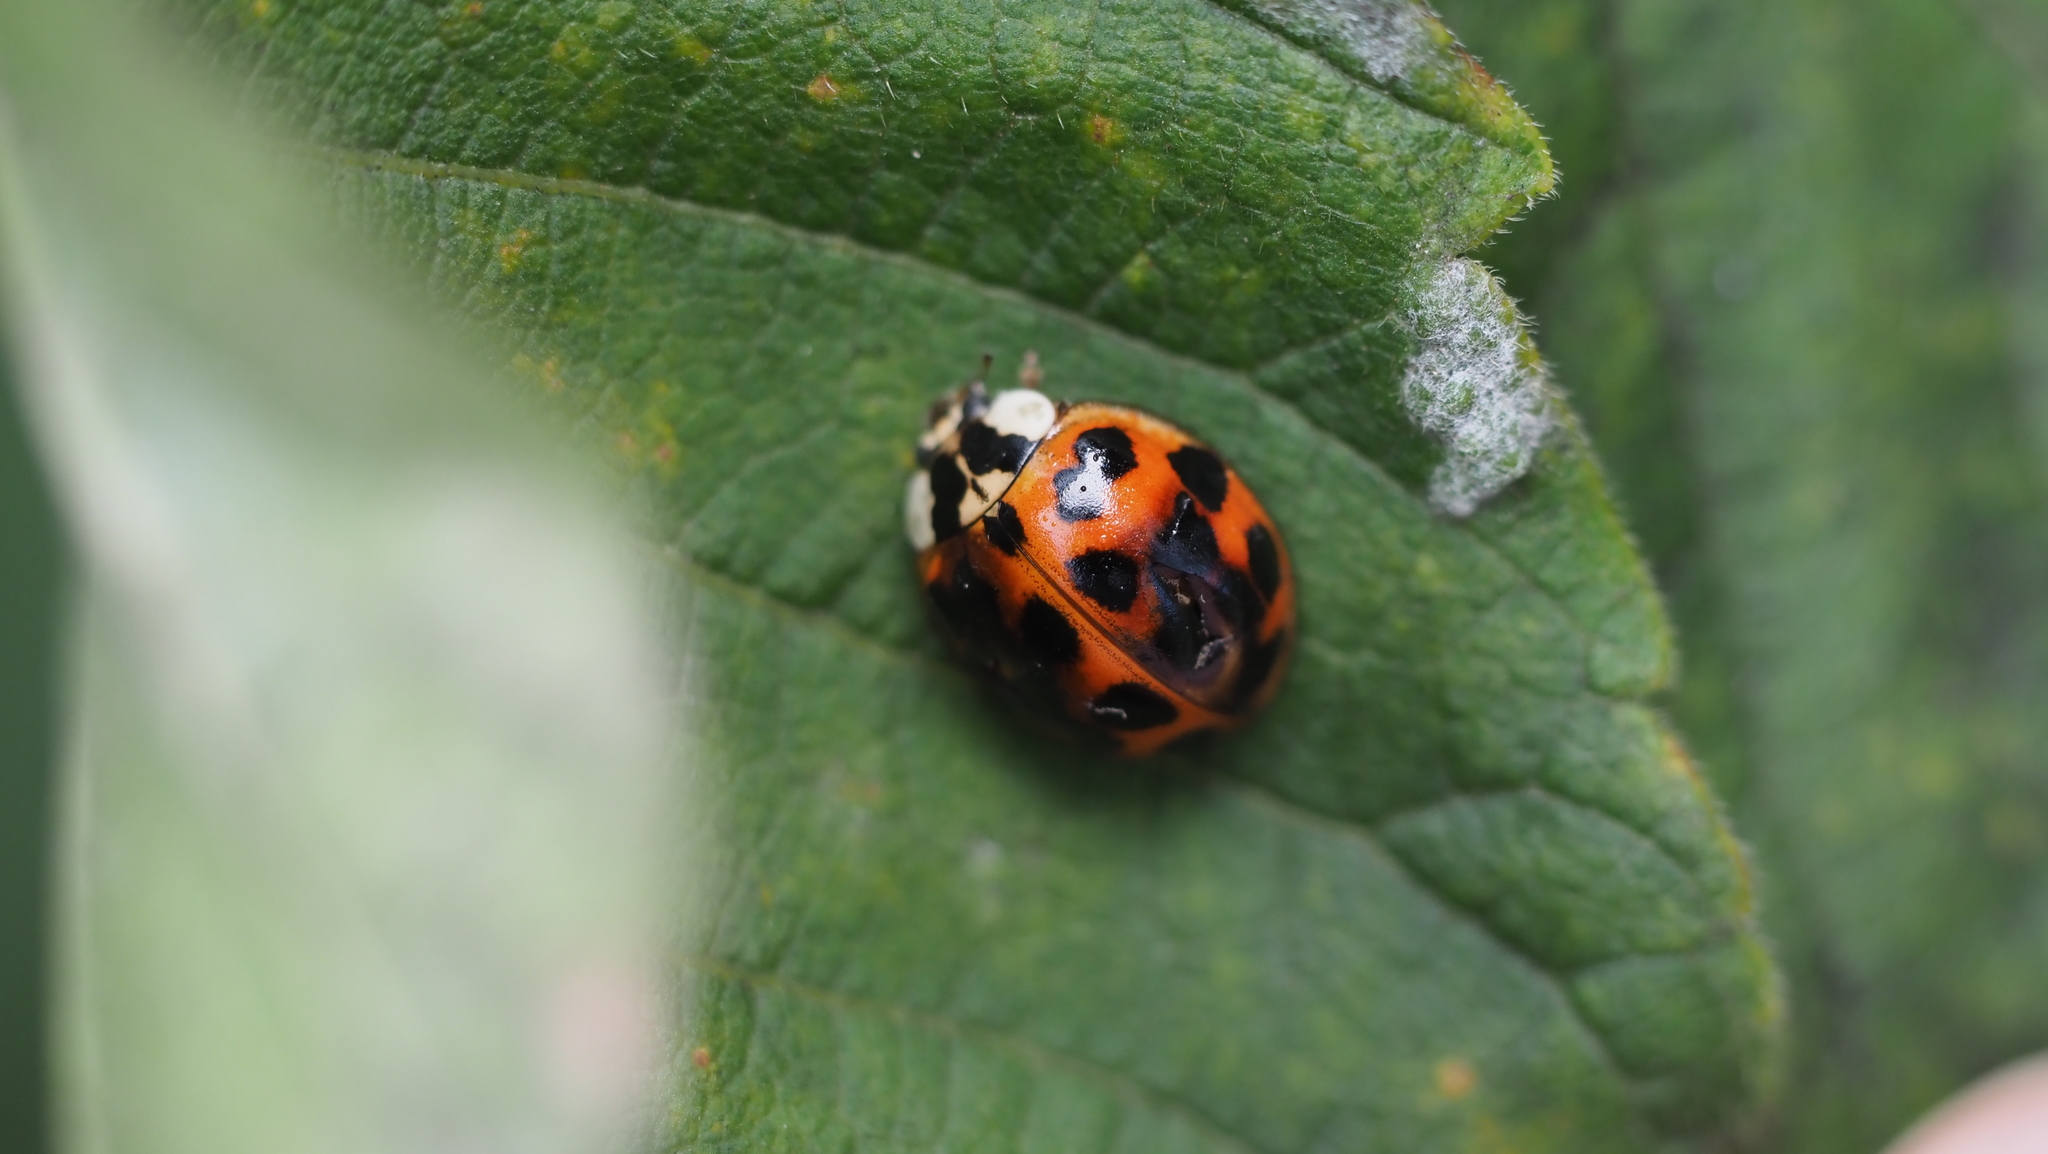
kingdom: Animalia
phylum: Arthropoda
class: Insecta
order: Coleoptera
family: Coccinellidae
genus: Harmonia
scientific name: Harmonia axyridis
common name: Harlequin ladybird
